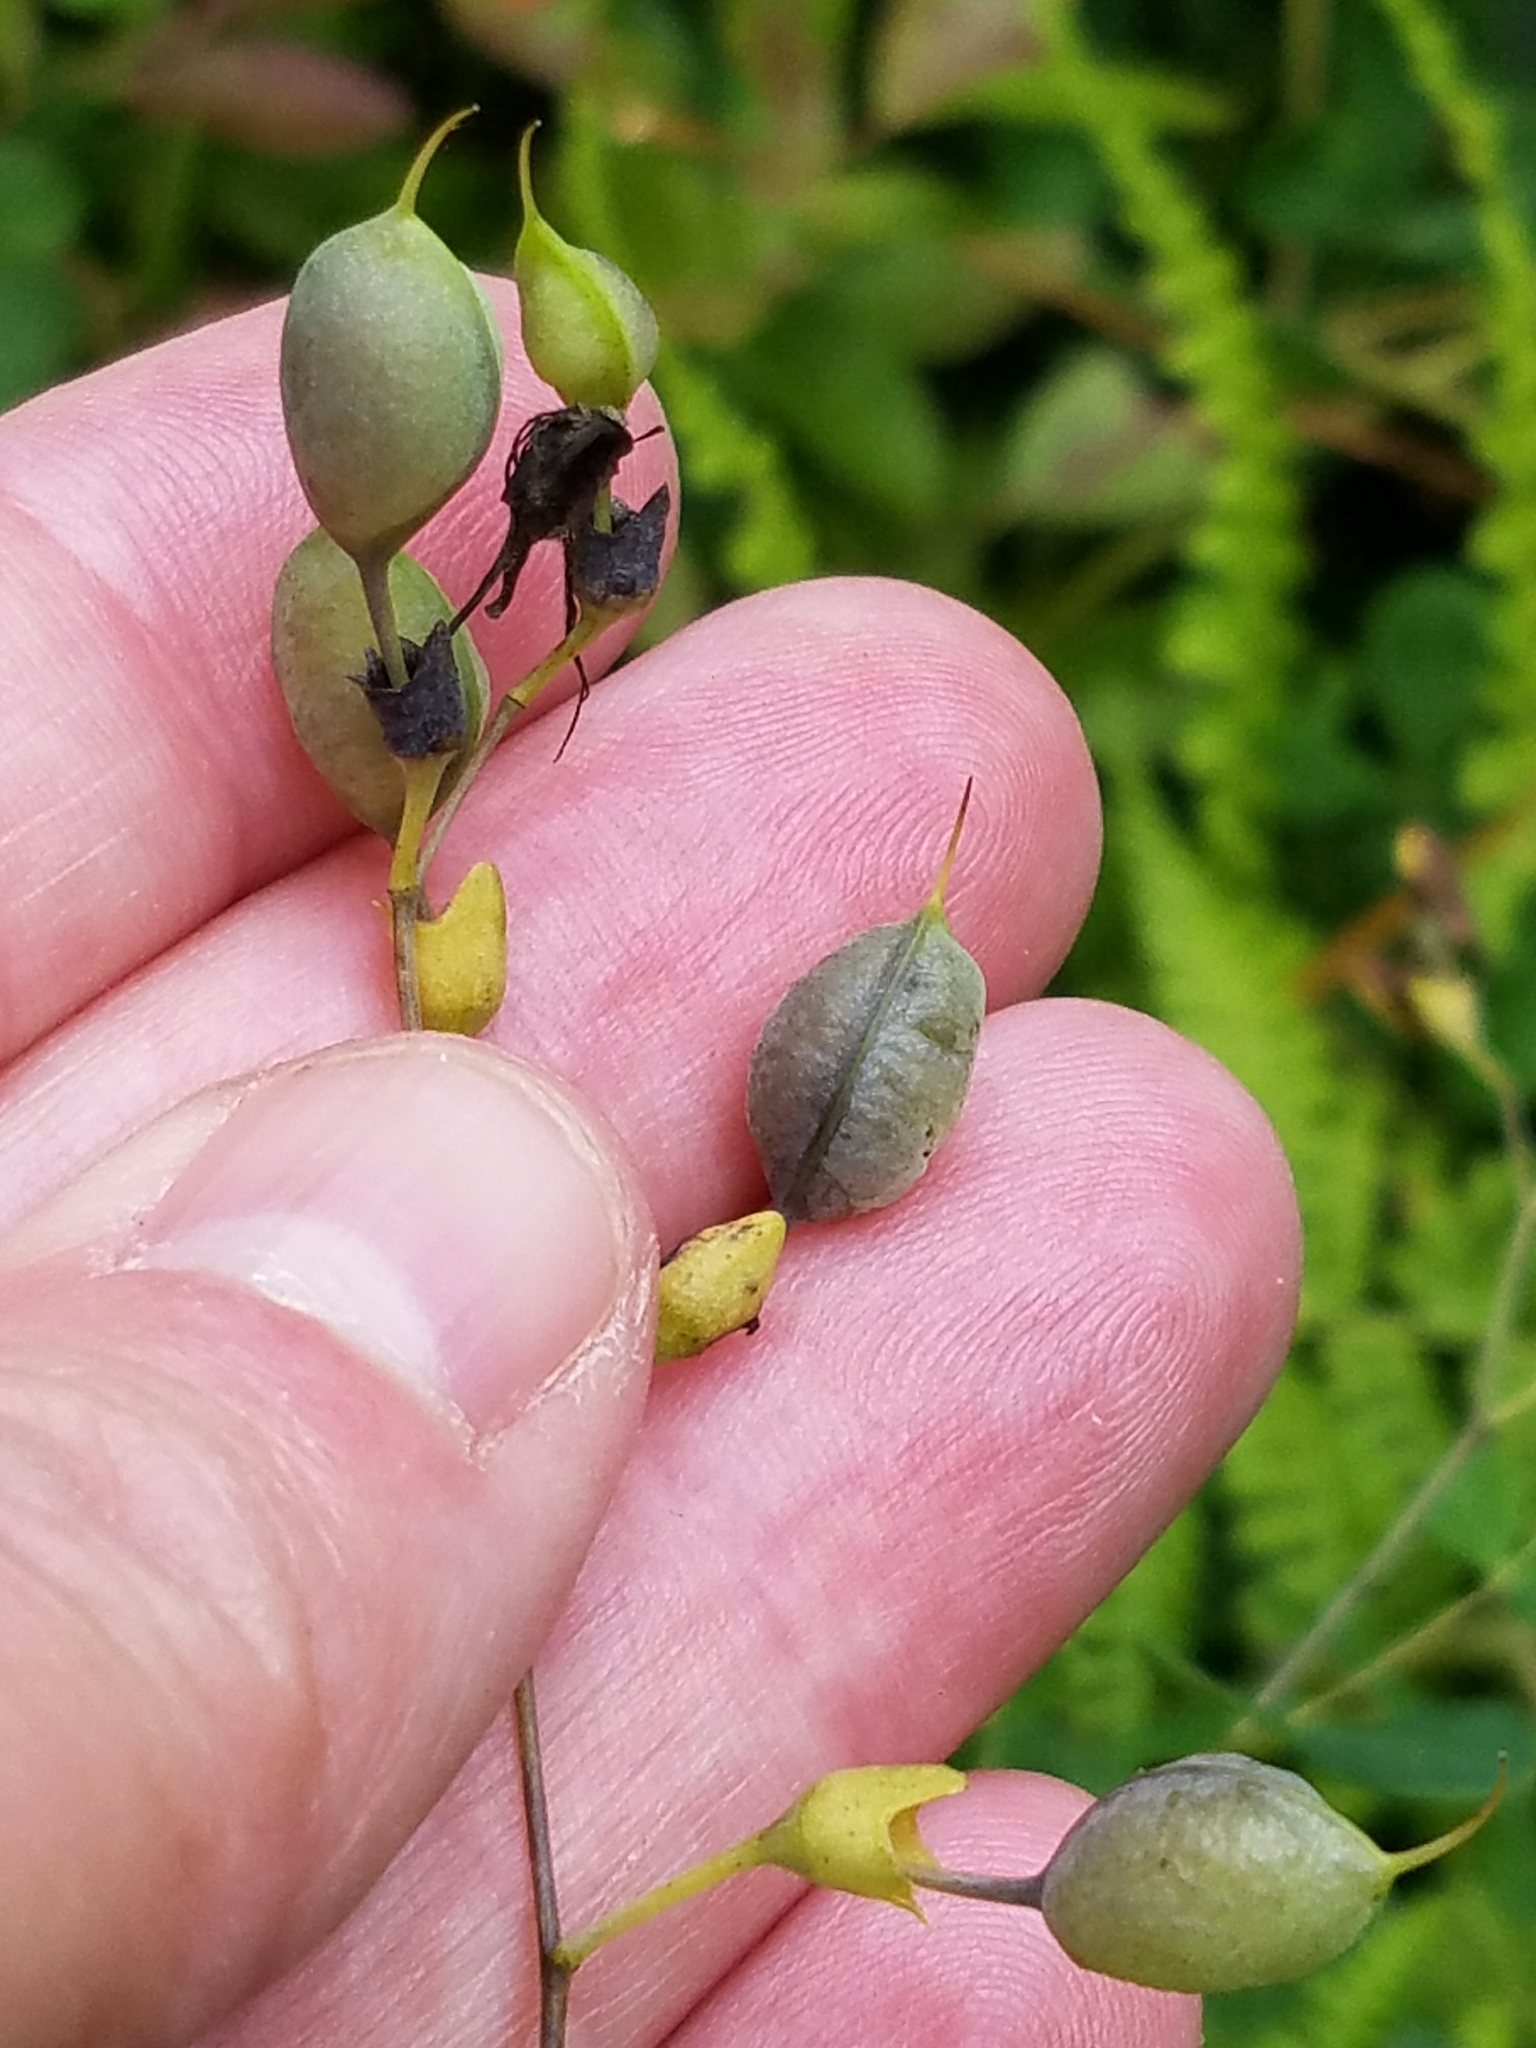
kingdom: Plantae
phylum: Tracheophyta
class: Magnoliopsida
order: Fabales
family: Fabaceae
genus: Baptisia
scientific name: Baptisia tinctoria
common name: Wild indigo
